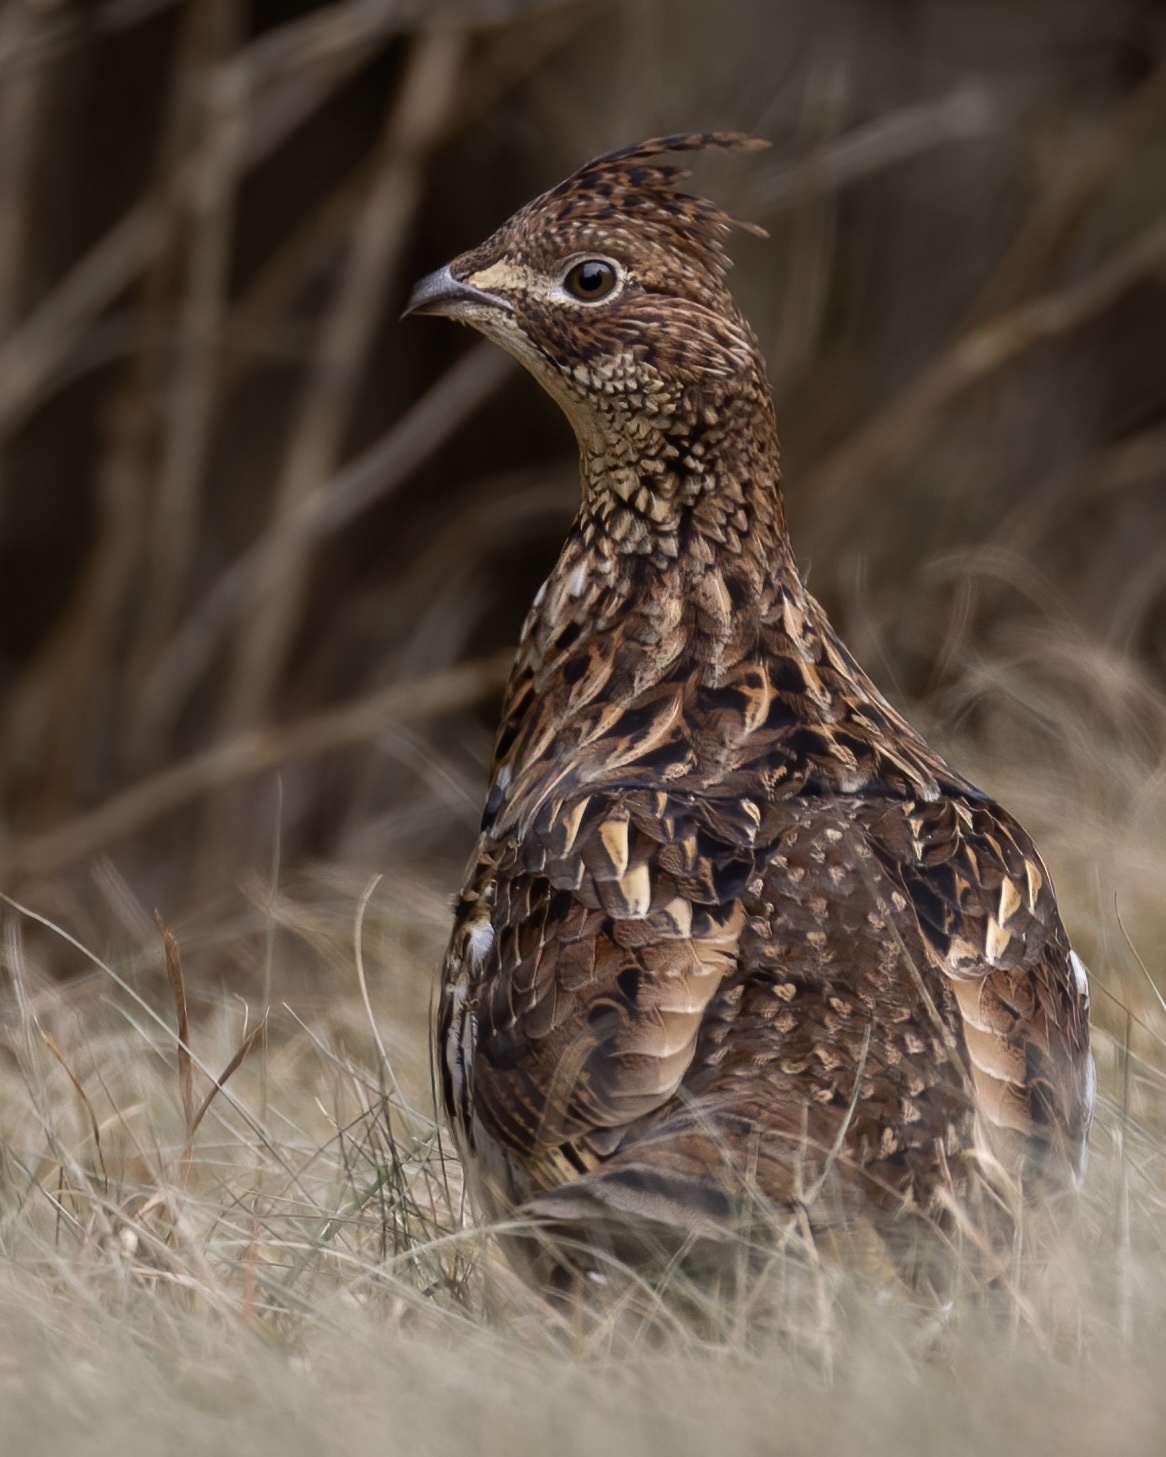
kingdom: Animalia
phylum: Chordata
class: Aves
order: Galliformes
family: Phasianidae
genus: Bonasa
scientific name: Bonasa umbellus
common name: Ruffed grouse
